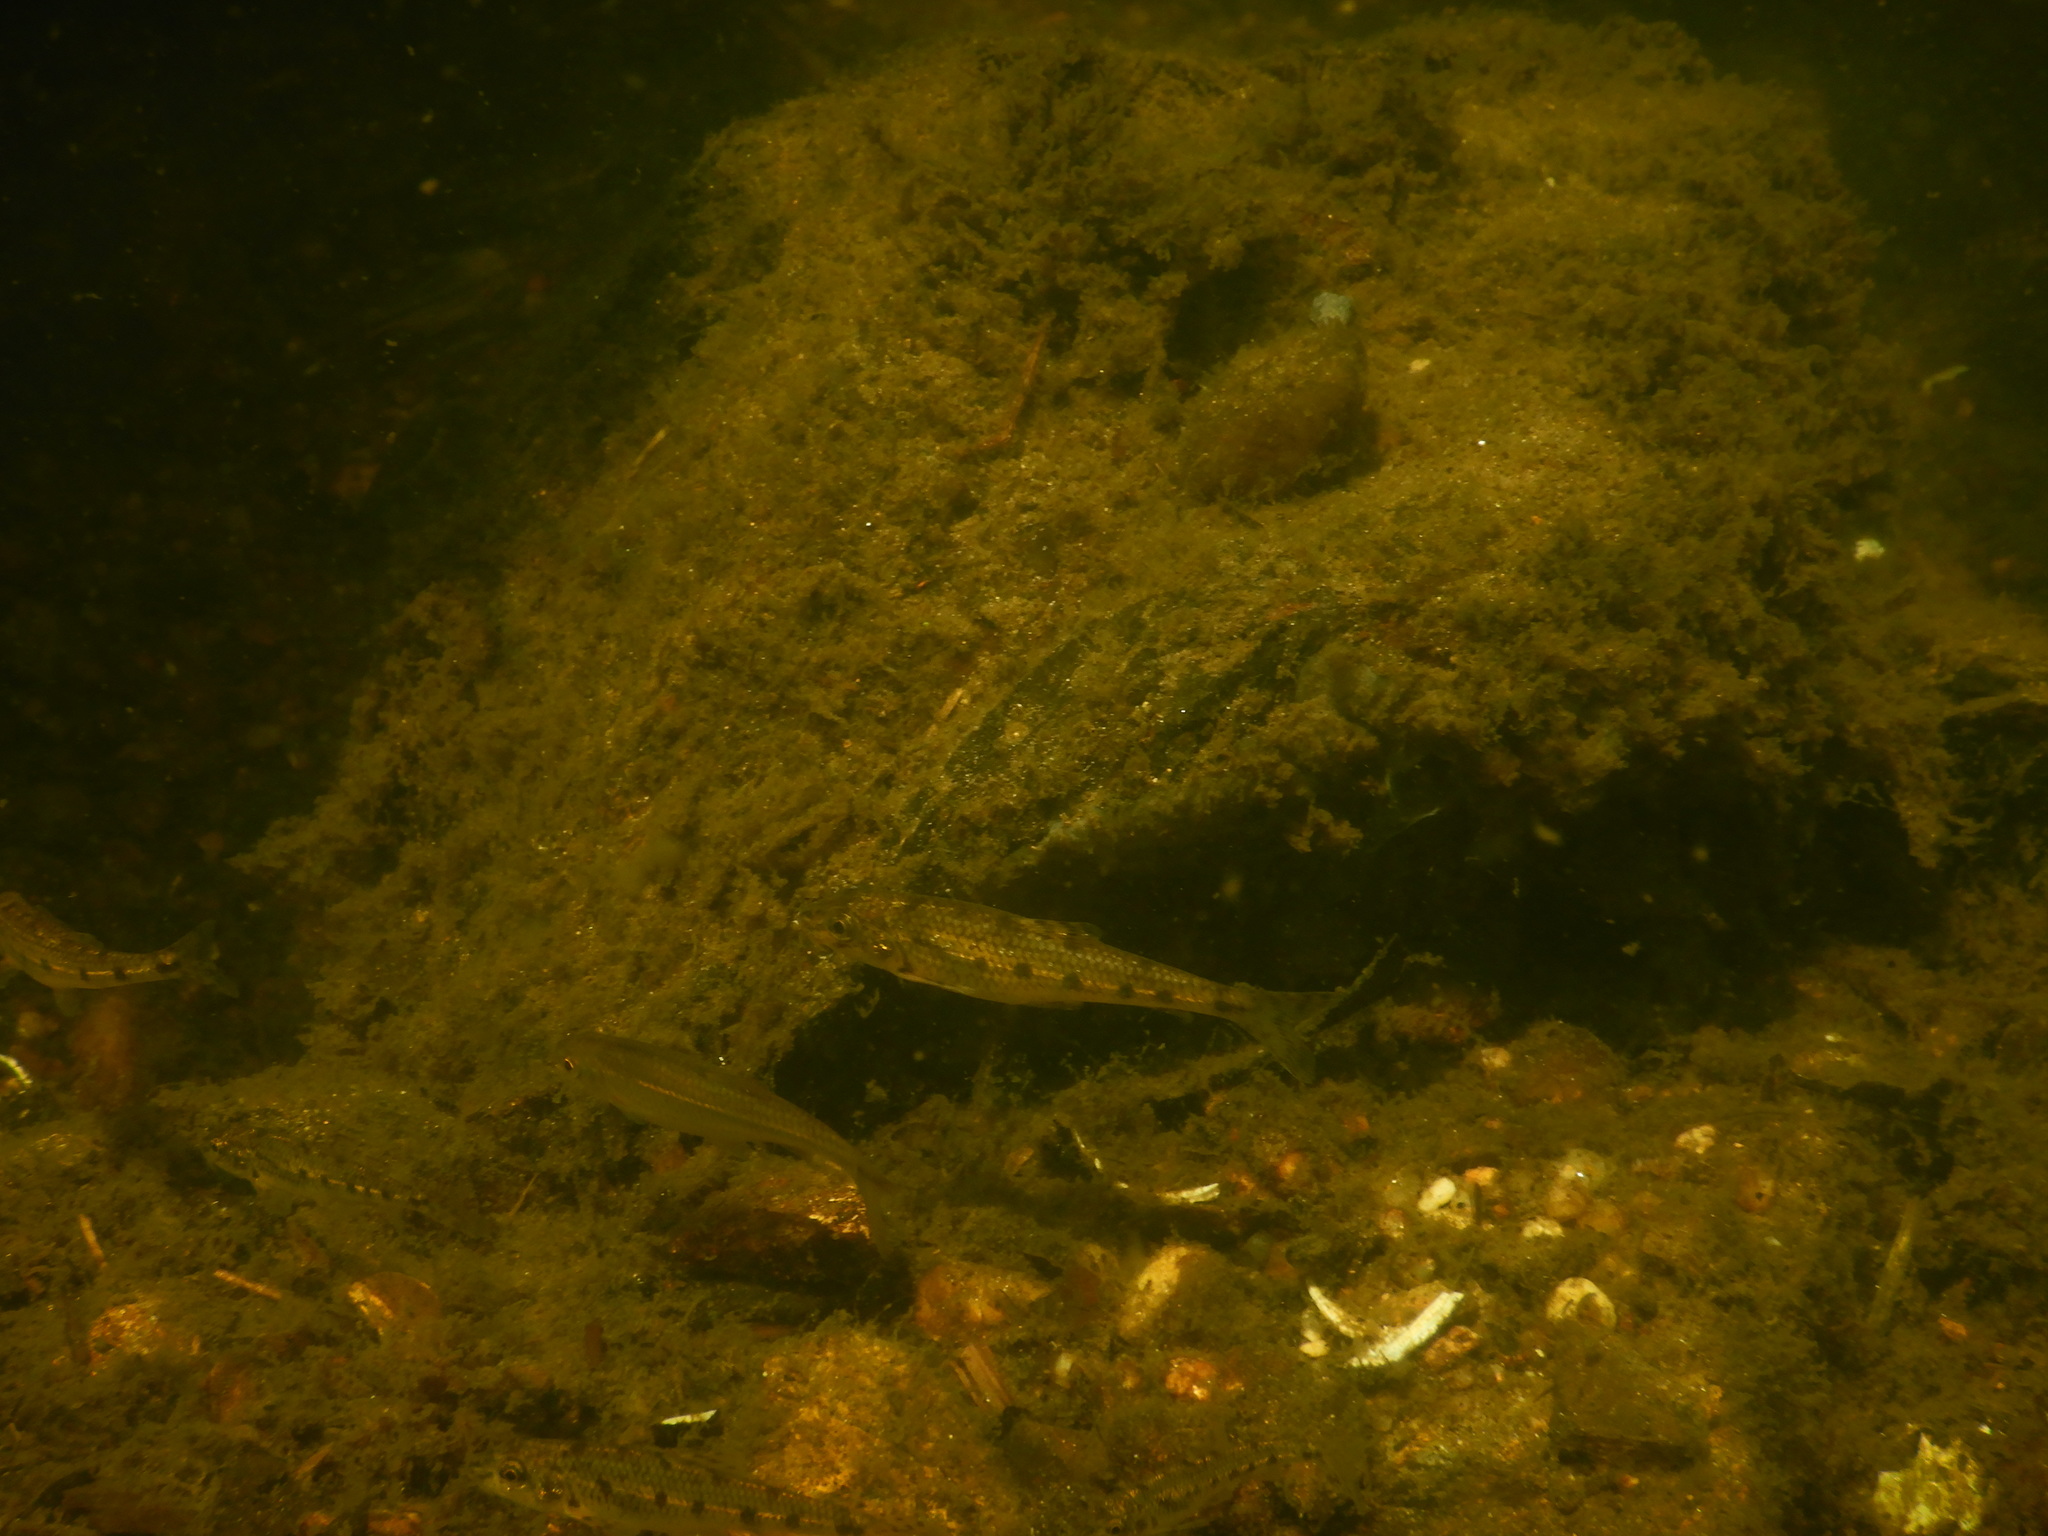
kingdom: Animalia
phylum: Chordata
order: Cypriniformes
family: Cyprinidae
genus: Gobio
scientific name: Gobio lozanoi
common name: Iberian gudgeon
